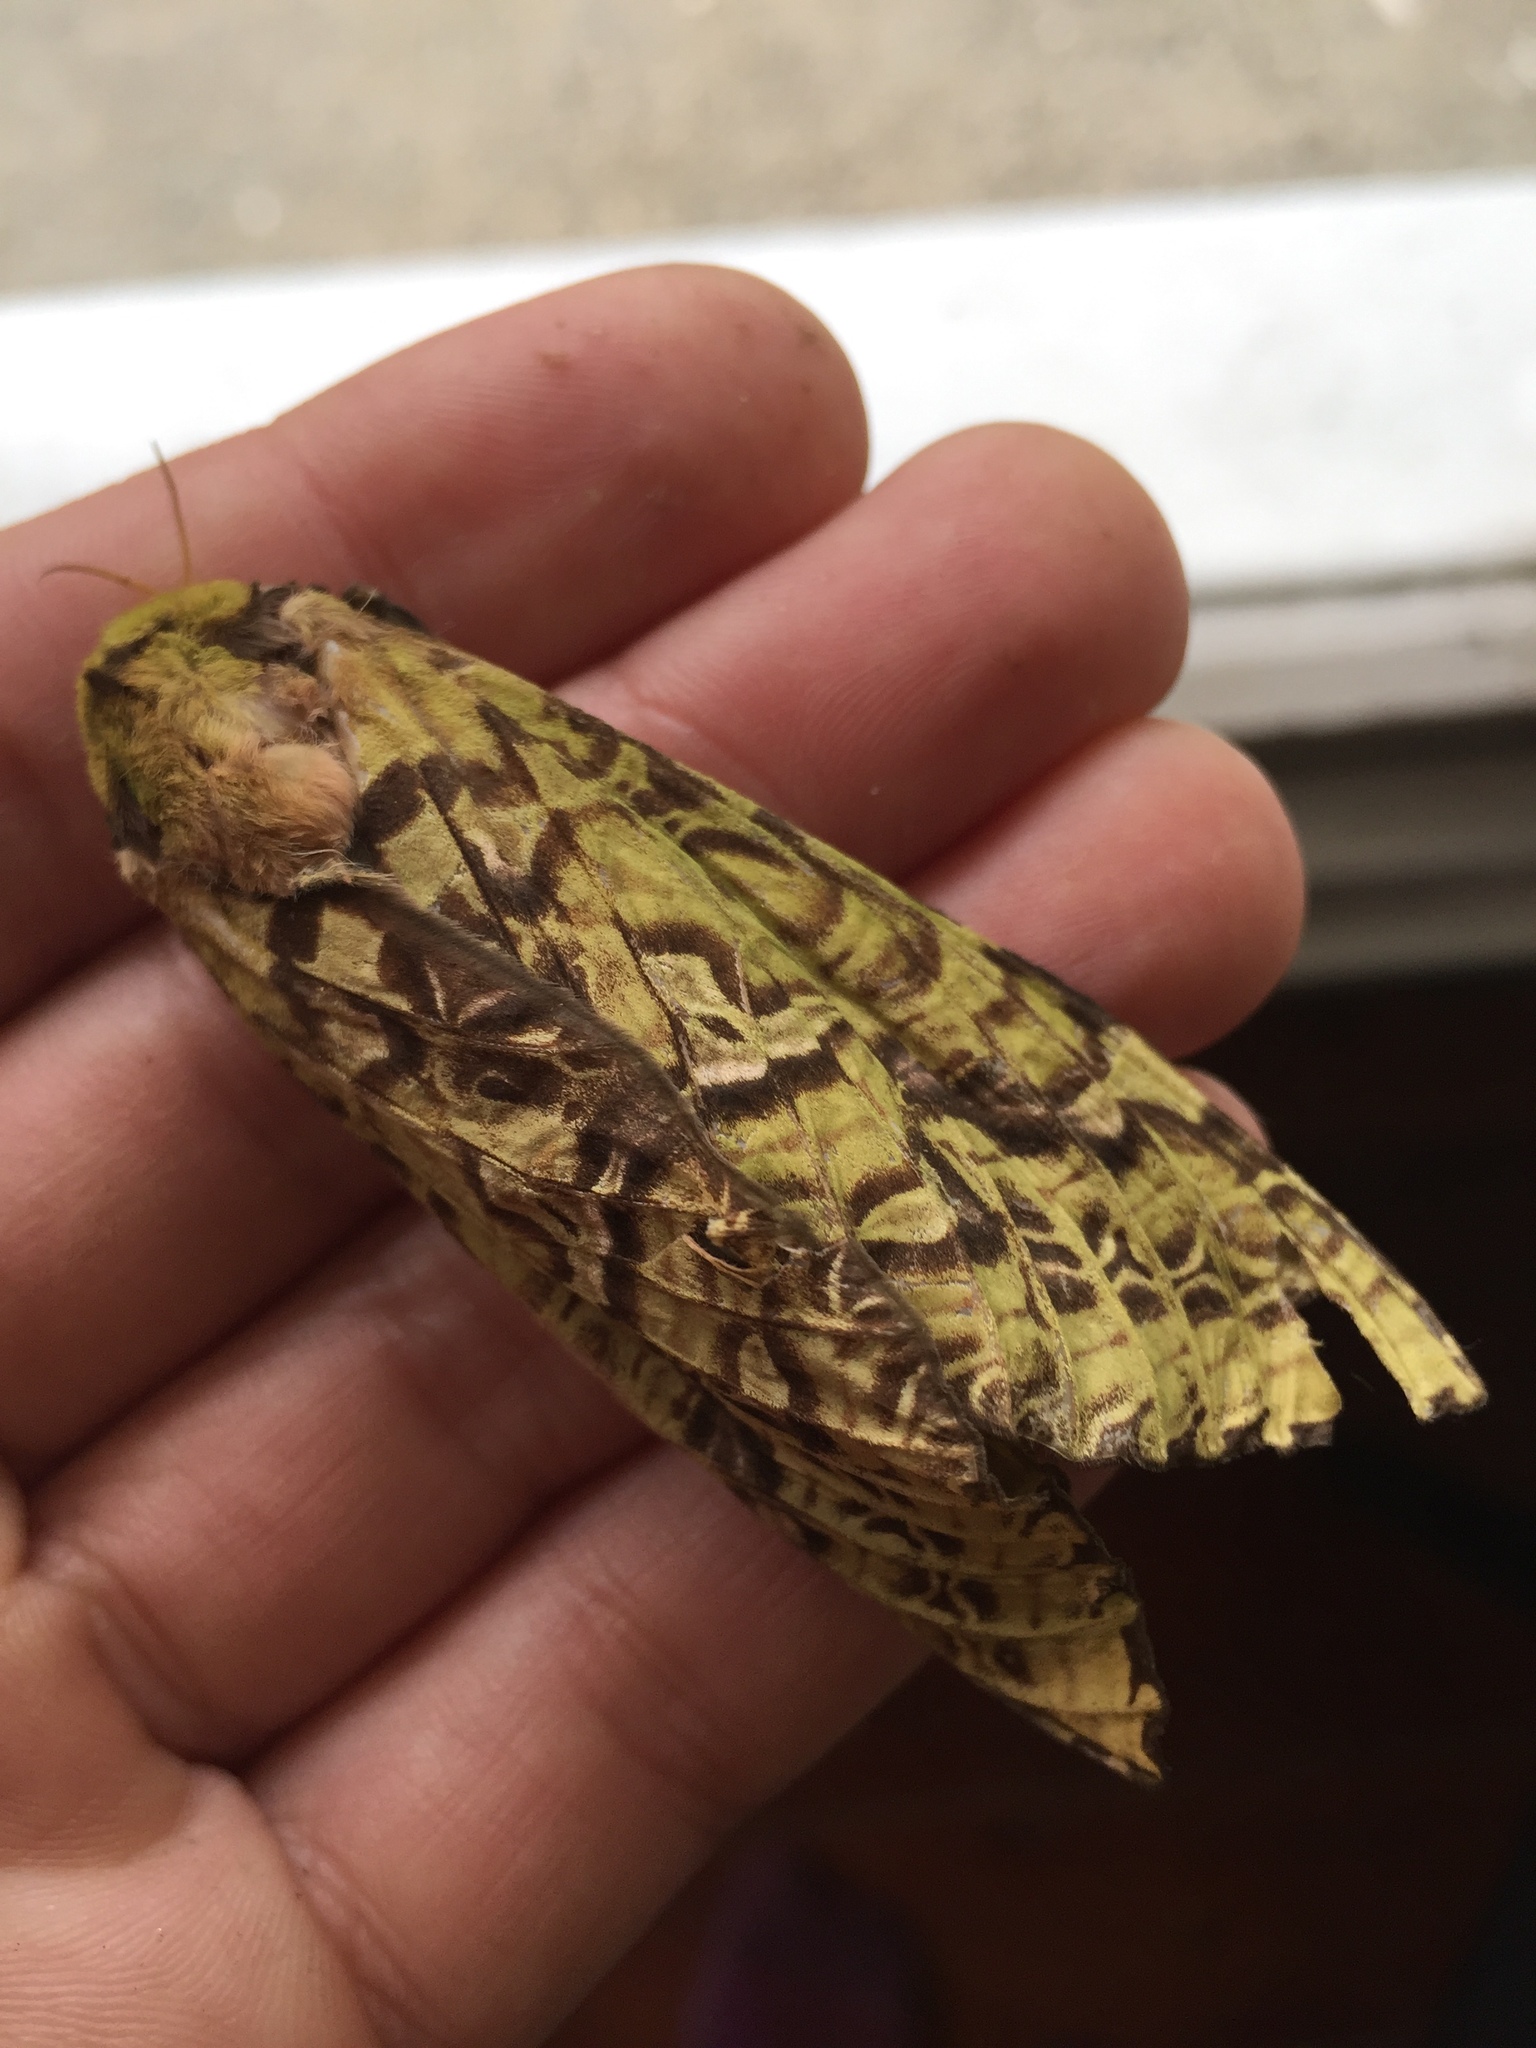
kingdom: Animalia
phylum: Arthropoda
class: Insecta
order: Lepidoptera
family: Hepialidae
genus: Aenetus
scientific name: Aenetus virescens
